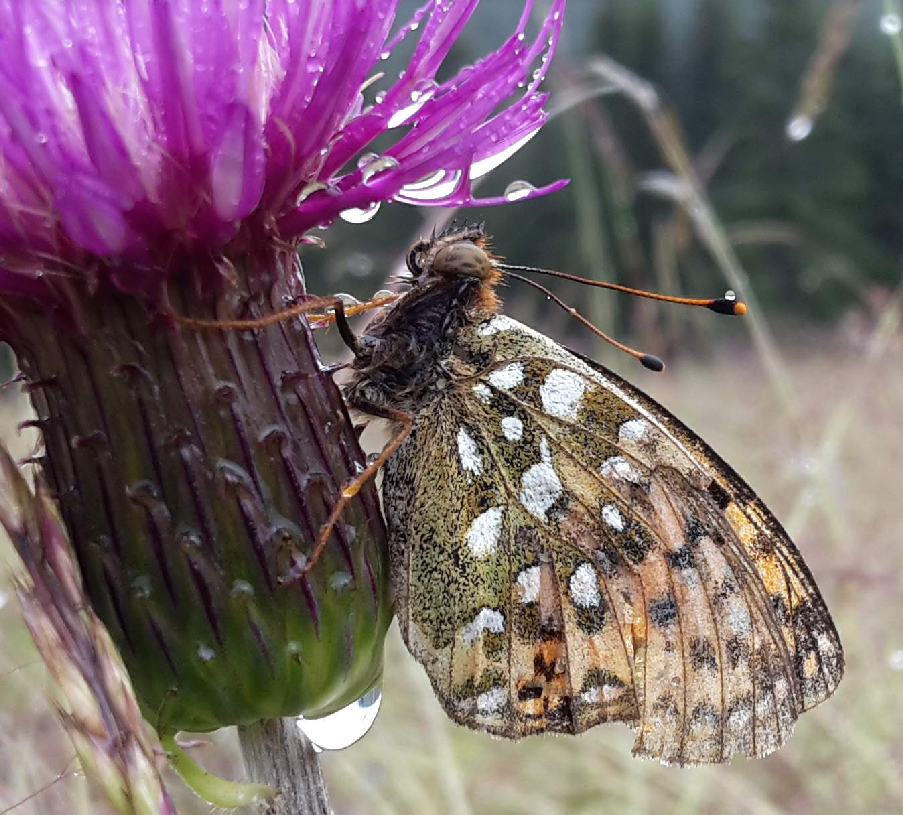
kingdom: Animalia
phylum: Arthropoda
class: Insecta
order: Lepidoptera
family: Nymphalidae
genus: Speyeria
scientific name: Speyeria aglaja
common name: Dark green fritillary
